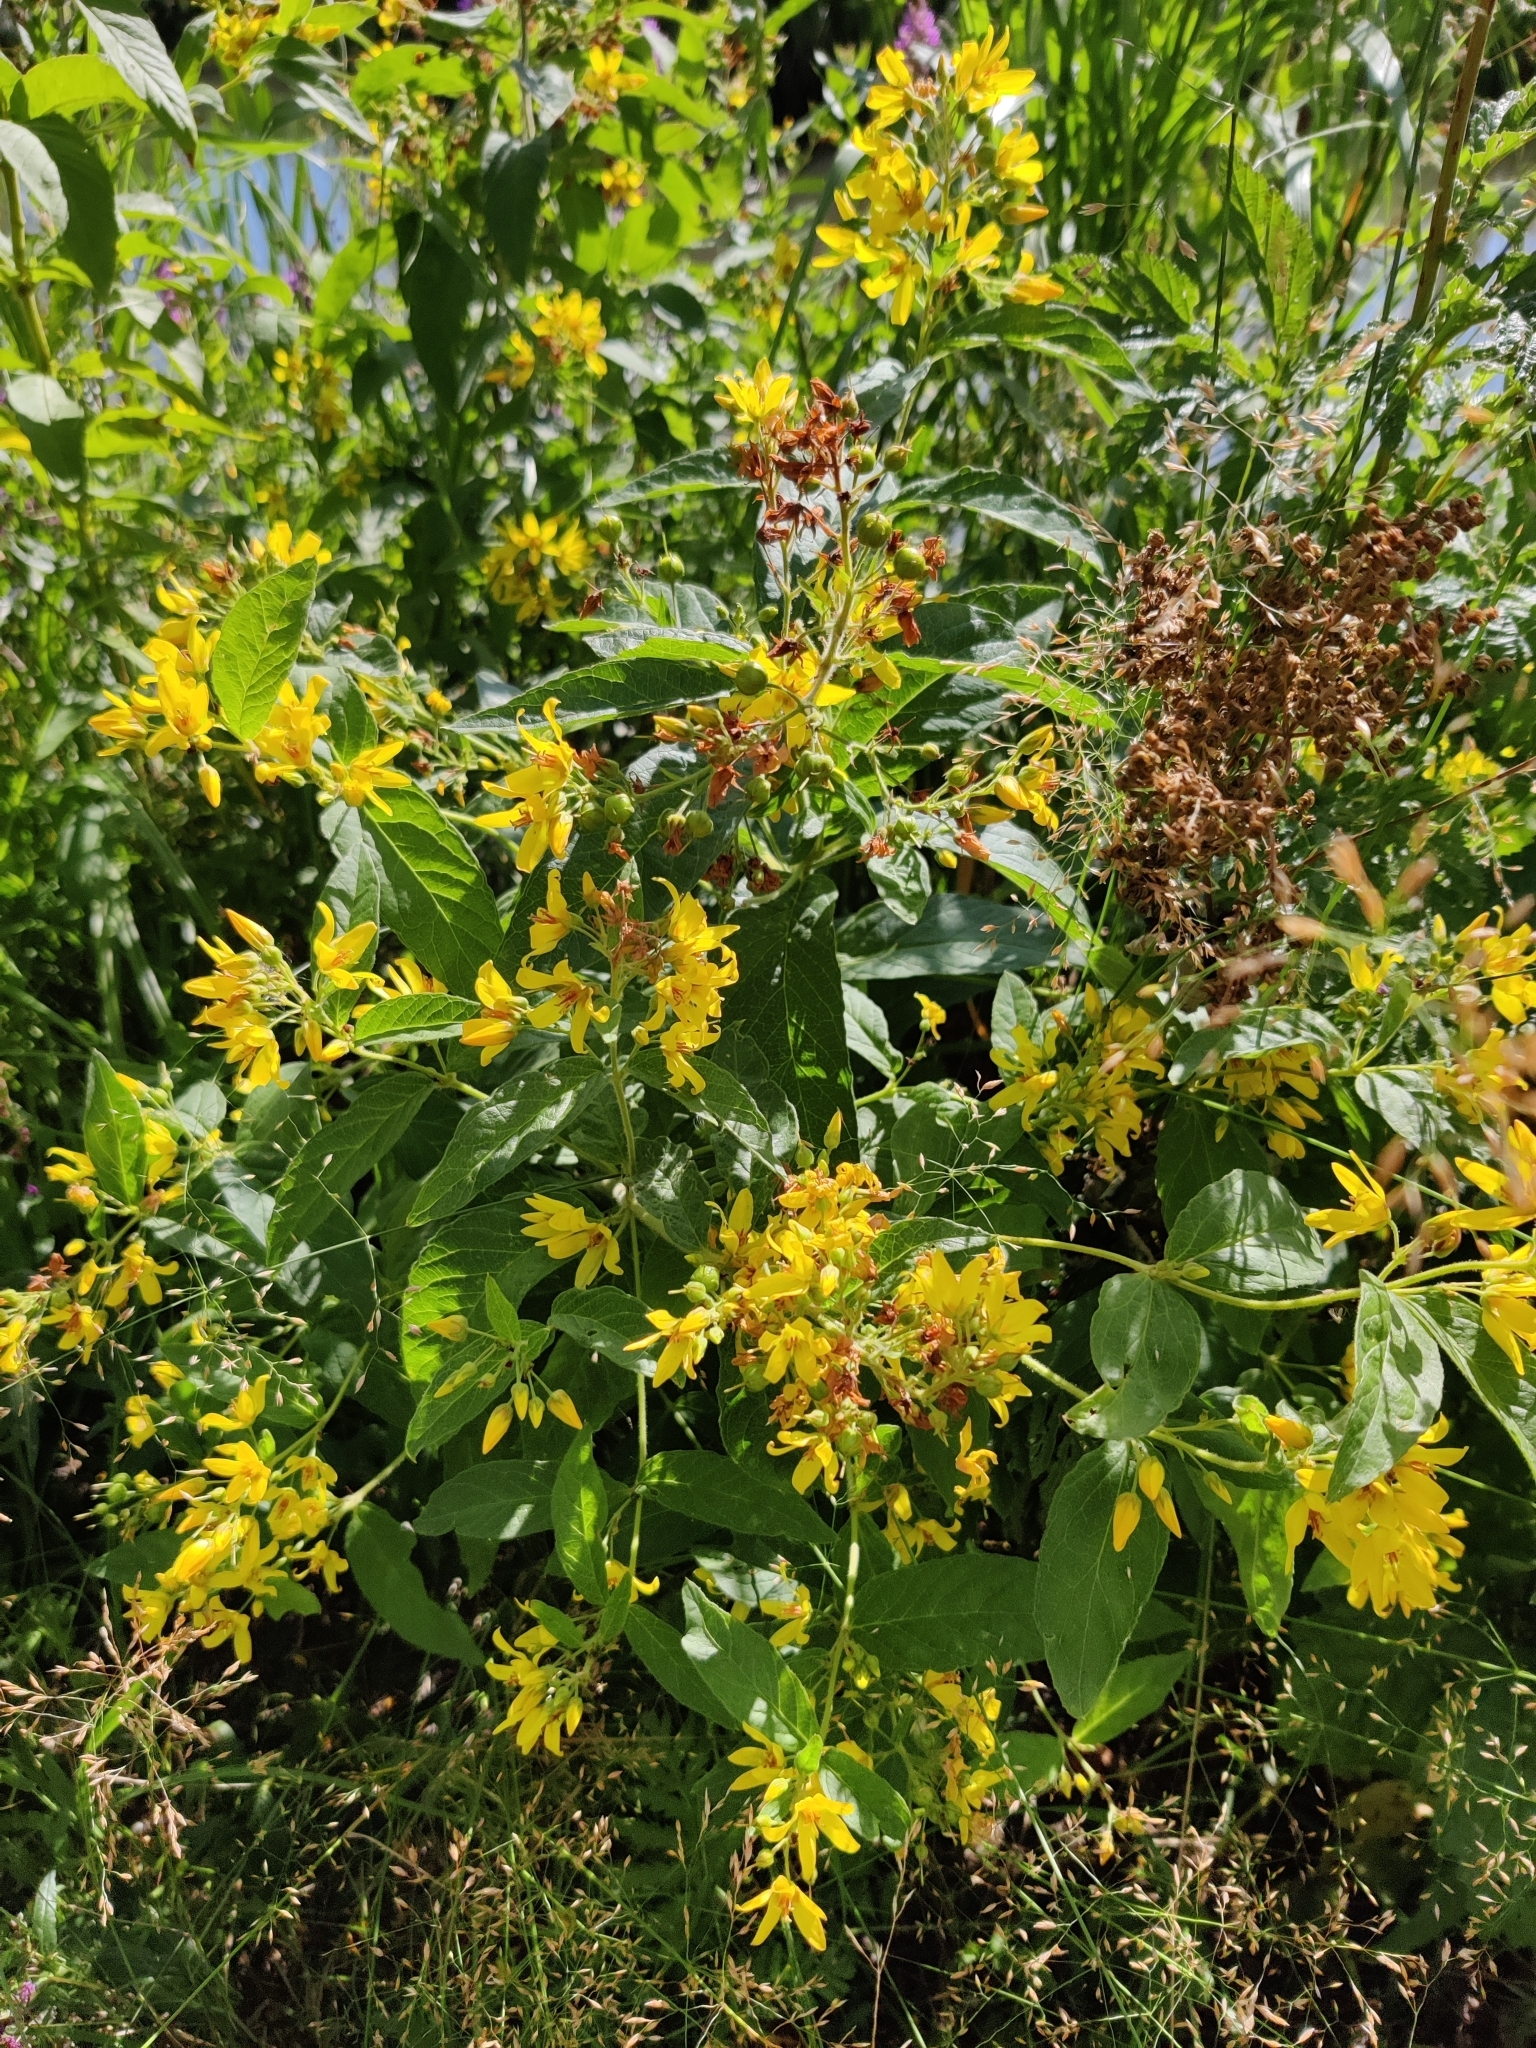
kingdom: Plantae
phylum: Tracheophyta
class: Magnoliopsida
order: Ericales
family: Primulaceae
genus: Lysimachia
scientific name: Lysimachia vulgaris
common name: Yellow loosestrife
